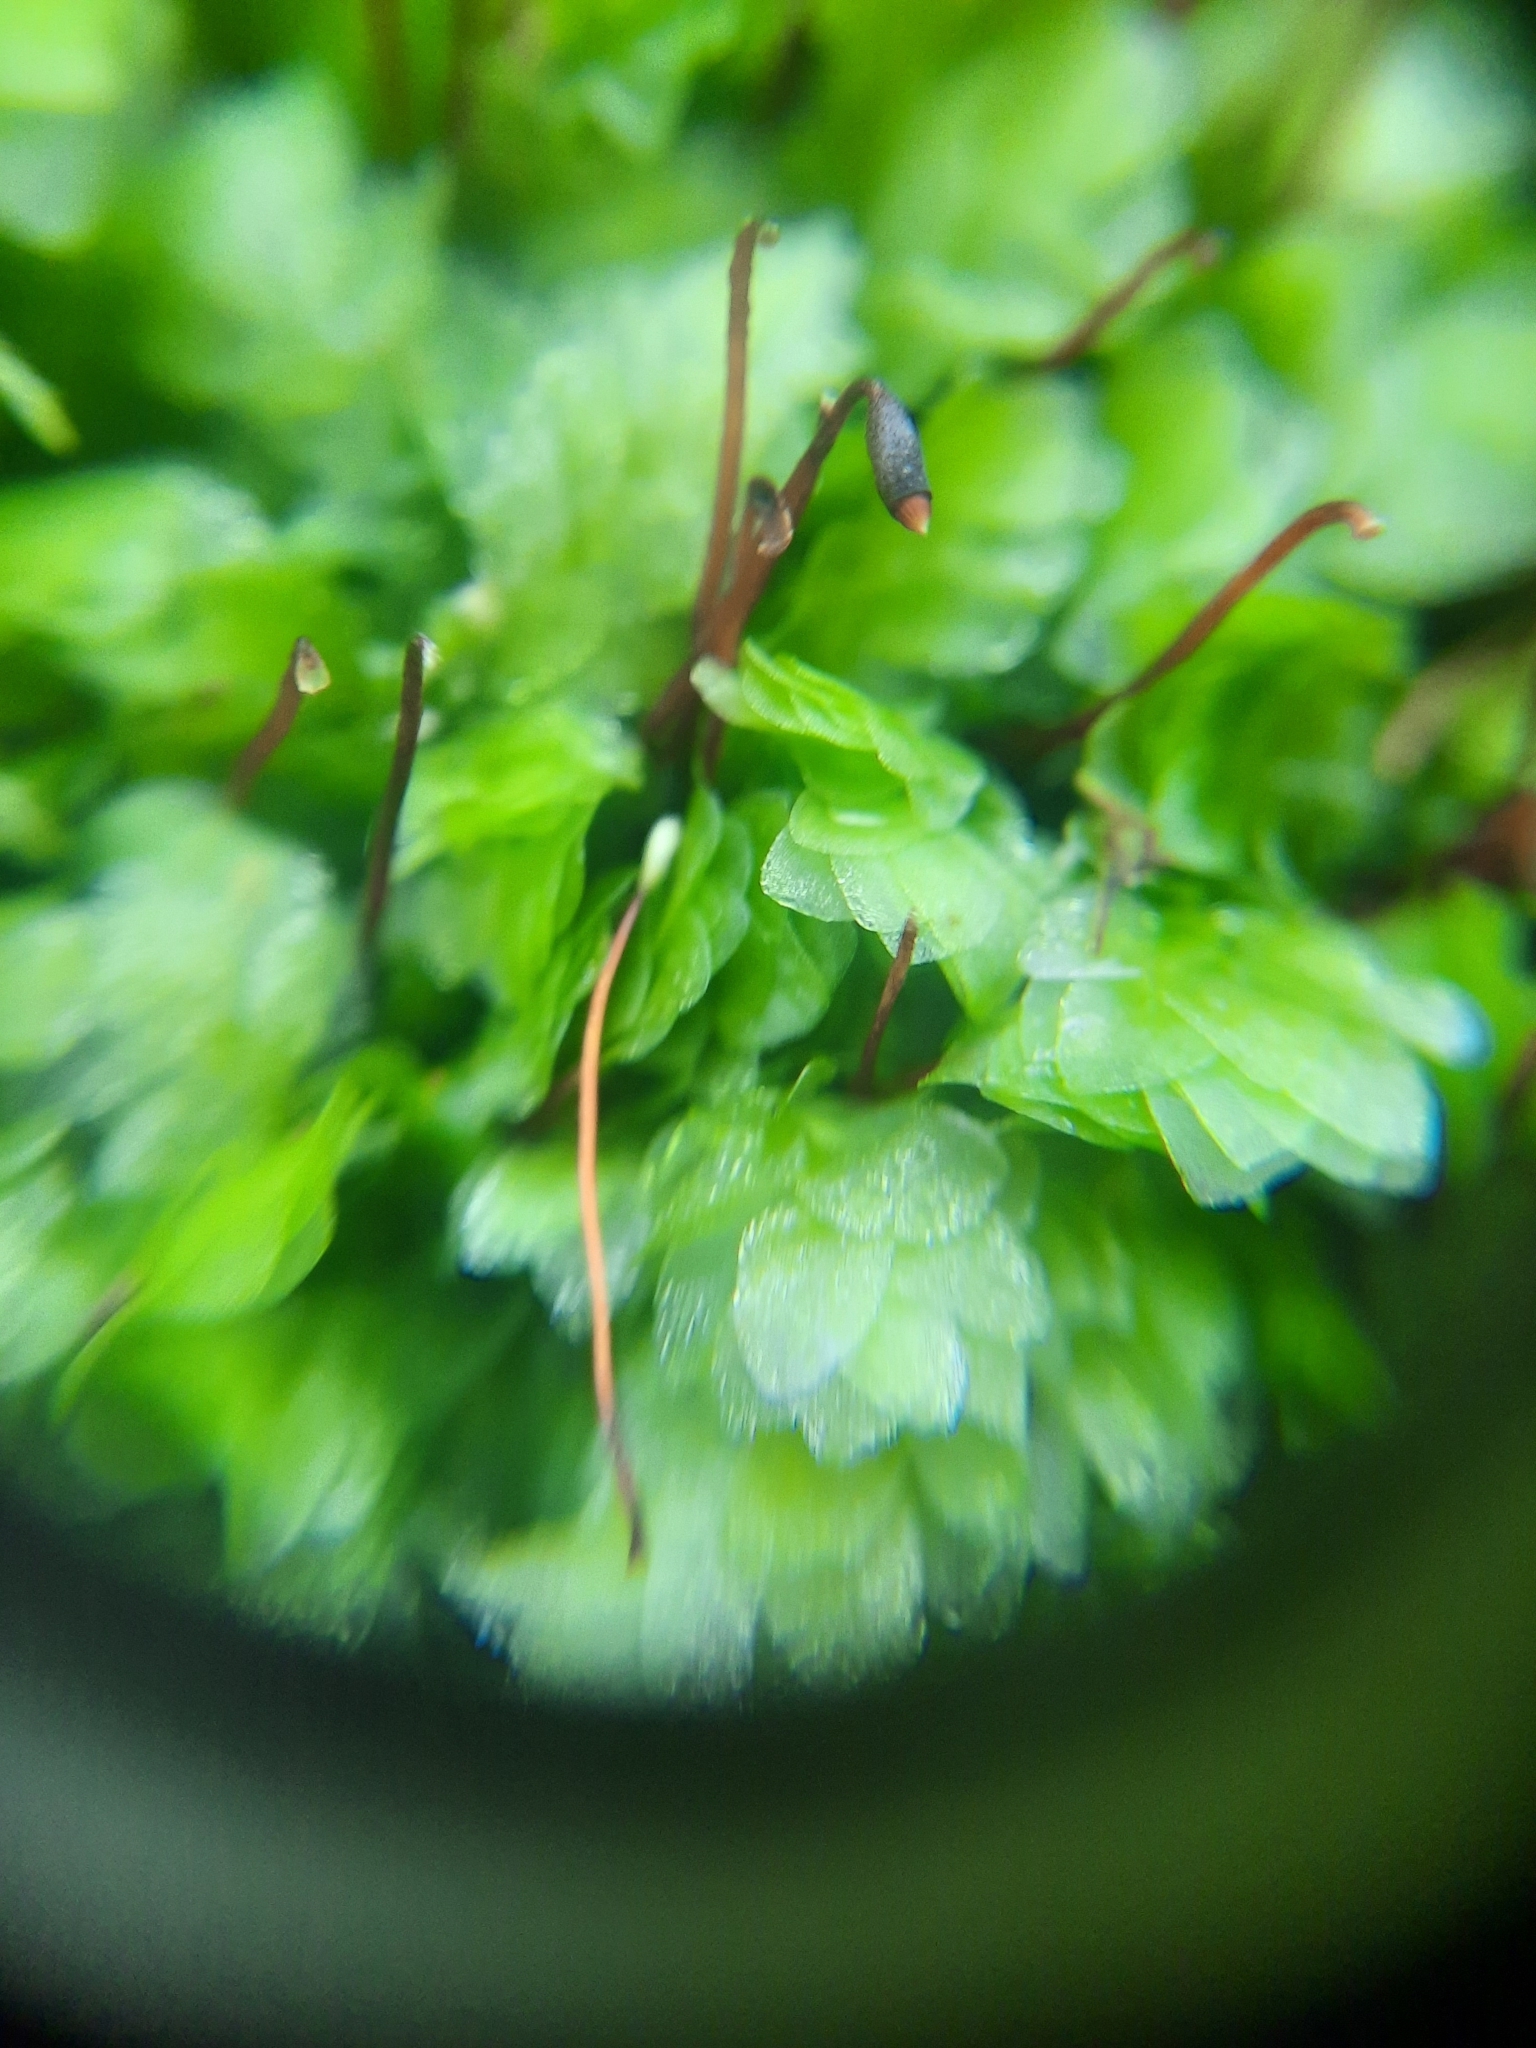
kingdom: Plantae
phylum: Bryophyta
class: Bryopsida
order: Hookeriales
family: Hookeriaceae
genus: Hookeria
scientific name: Hookeria lucens
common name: Shining hookeria
